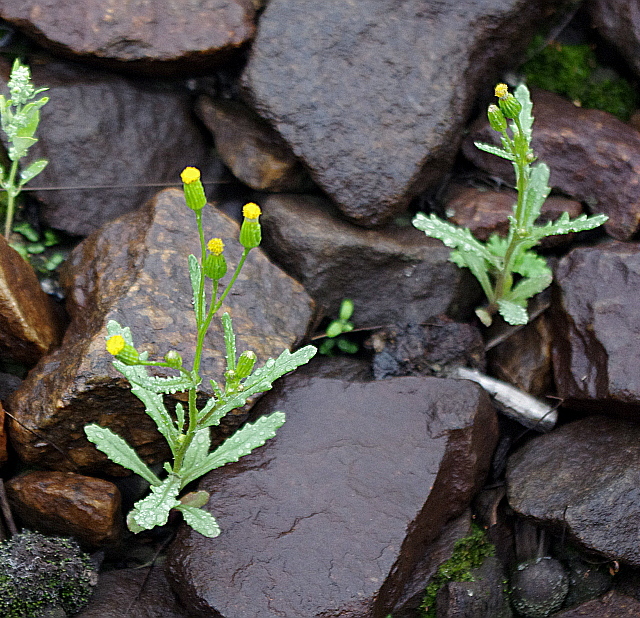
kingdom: Plantae
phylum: Tracheophyta
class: Magnoliopsida
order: Asterales
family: Asteraceae
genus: Senecio
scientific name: Senecio dubitabilis
